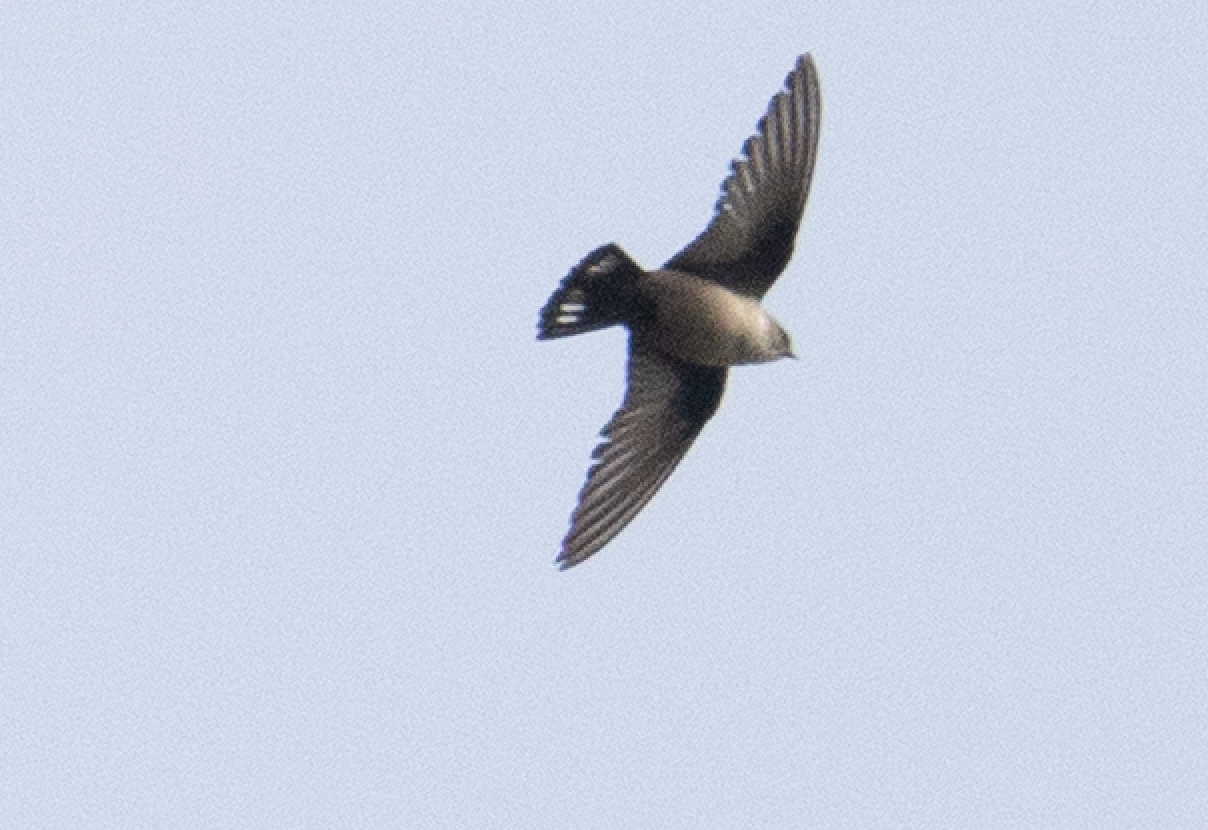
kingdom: Animalia
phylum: Chordata
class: Aves
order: Passeriformes
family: Hirundinidae
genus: Ptyonoprogne
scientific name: Ptyonoprogne rupestris
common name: Eurasian crag martin
